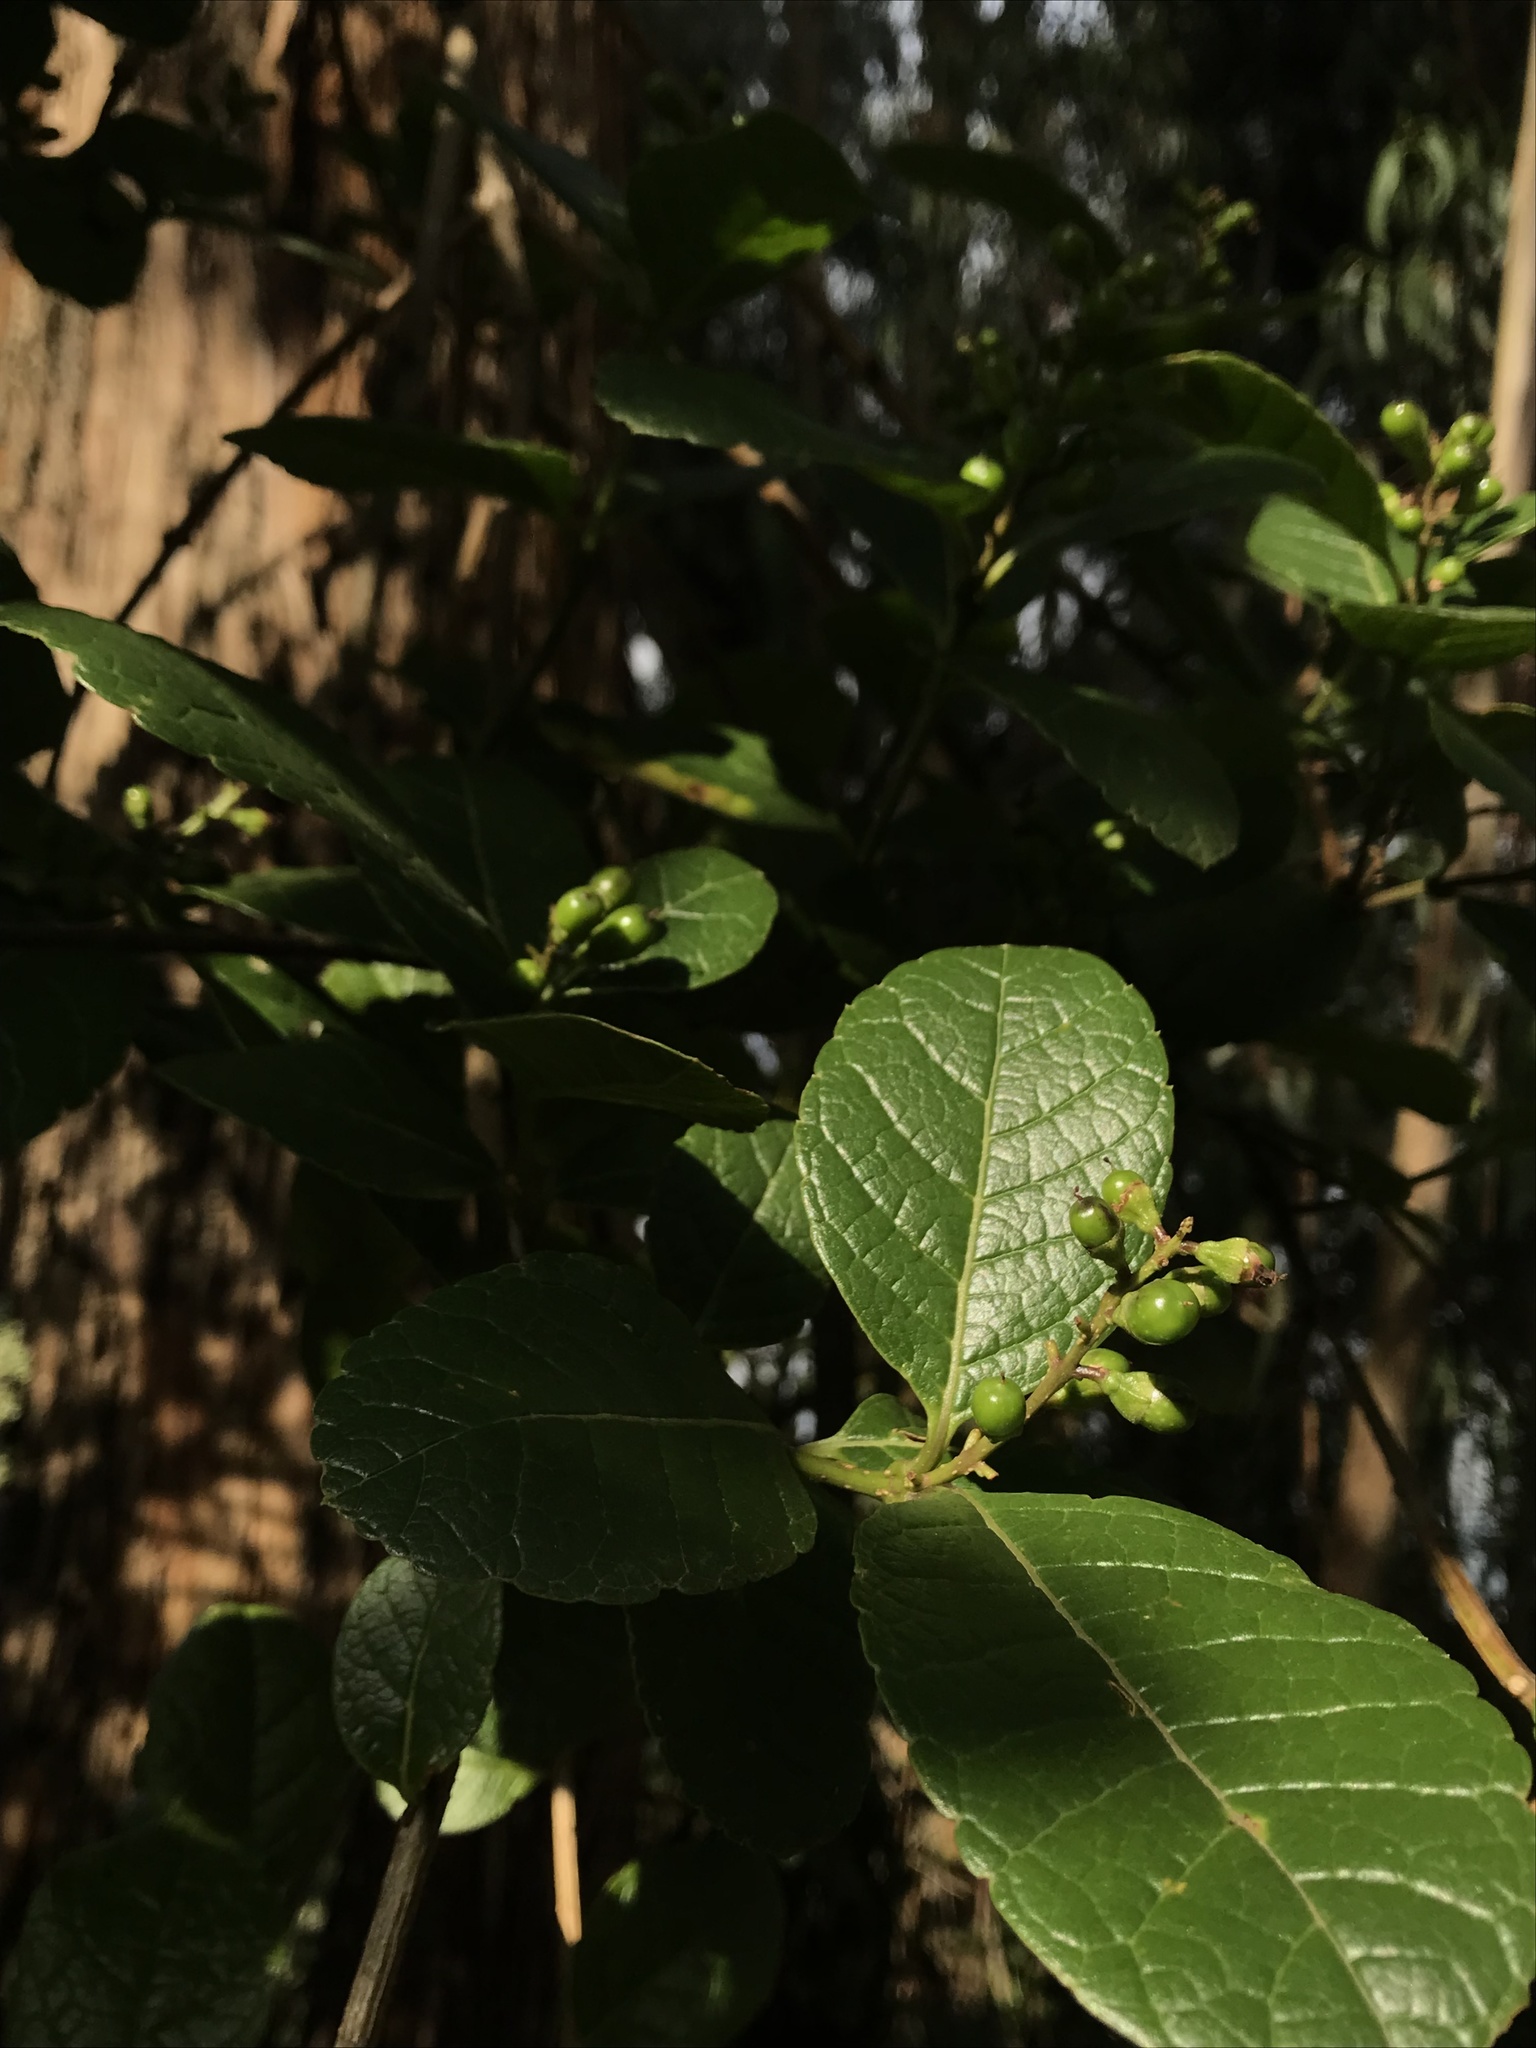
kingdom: Plantae
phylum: Tracheophyta
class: Magnoliopsida
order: Lamiales
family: Verbenaceae
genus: Citharexylum
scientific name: Citharexylum reticulatum
